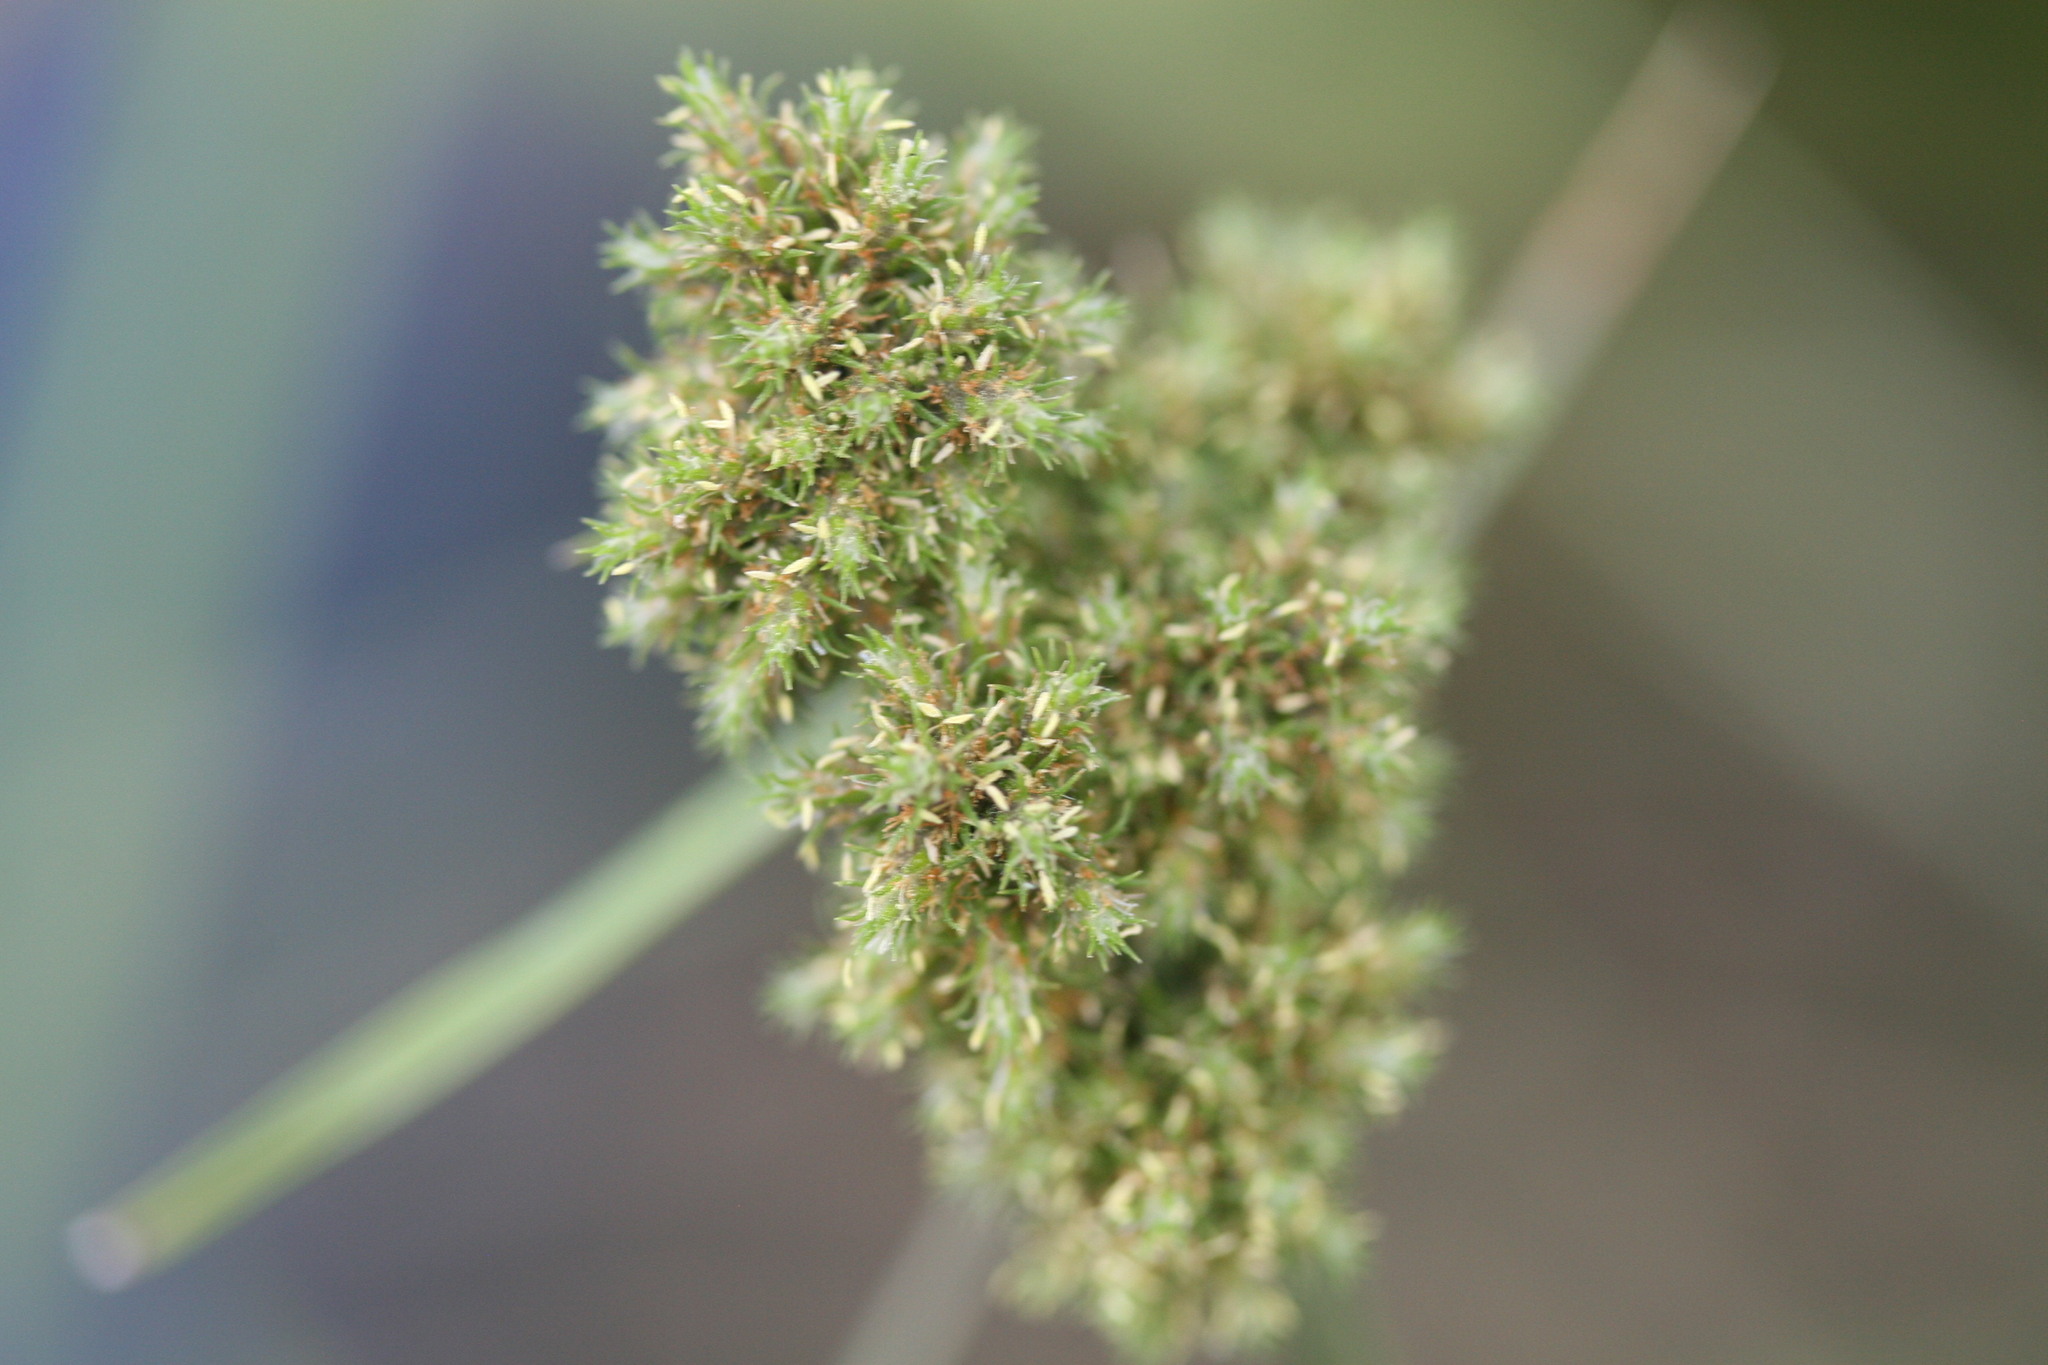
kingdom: Plantae
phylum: Tracheophyta
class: Liliopsida
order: Poales
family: Cyperaceae
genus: Fuirena
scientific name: Fuirena umbellata
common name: Yefen
